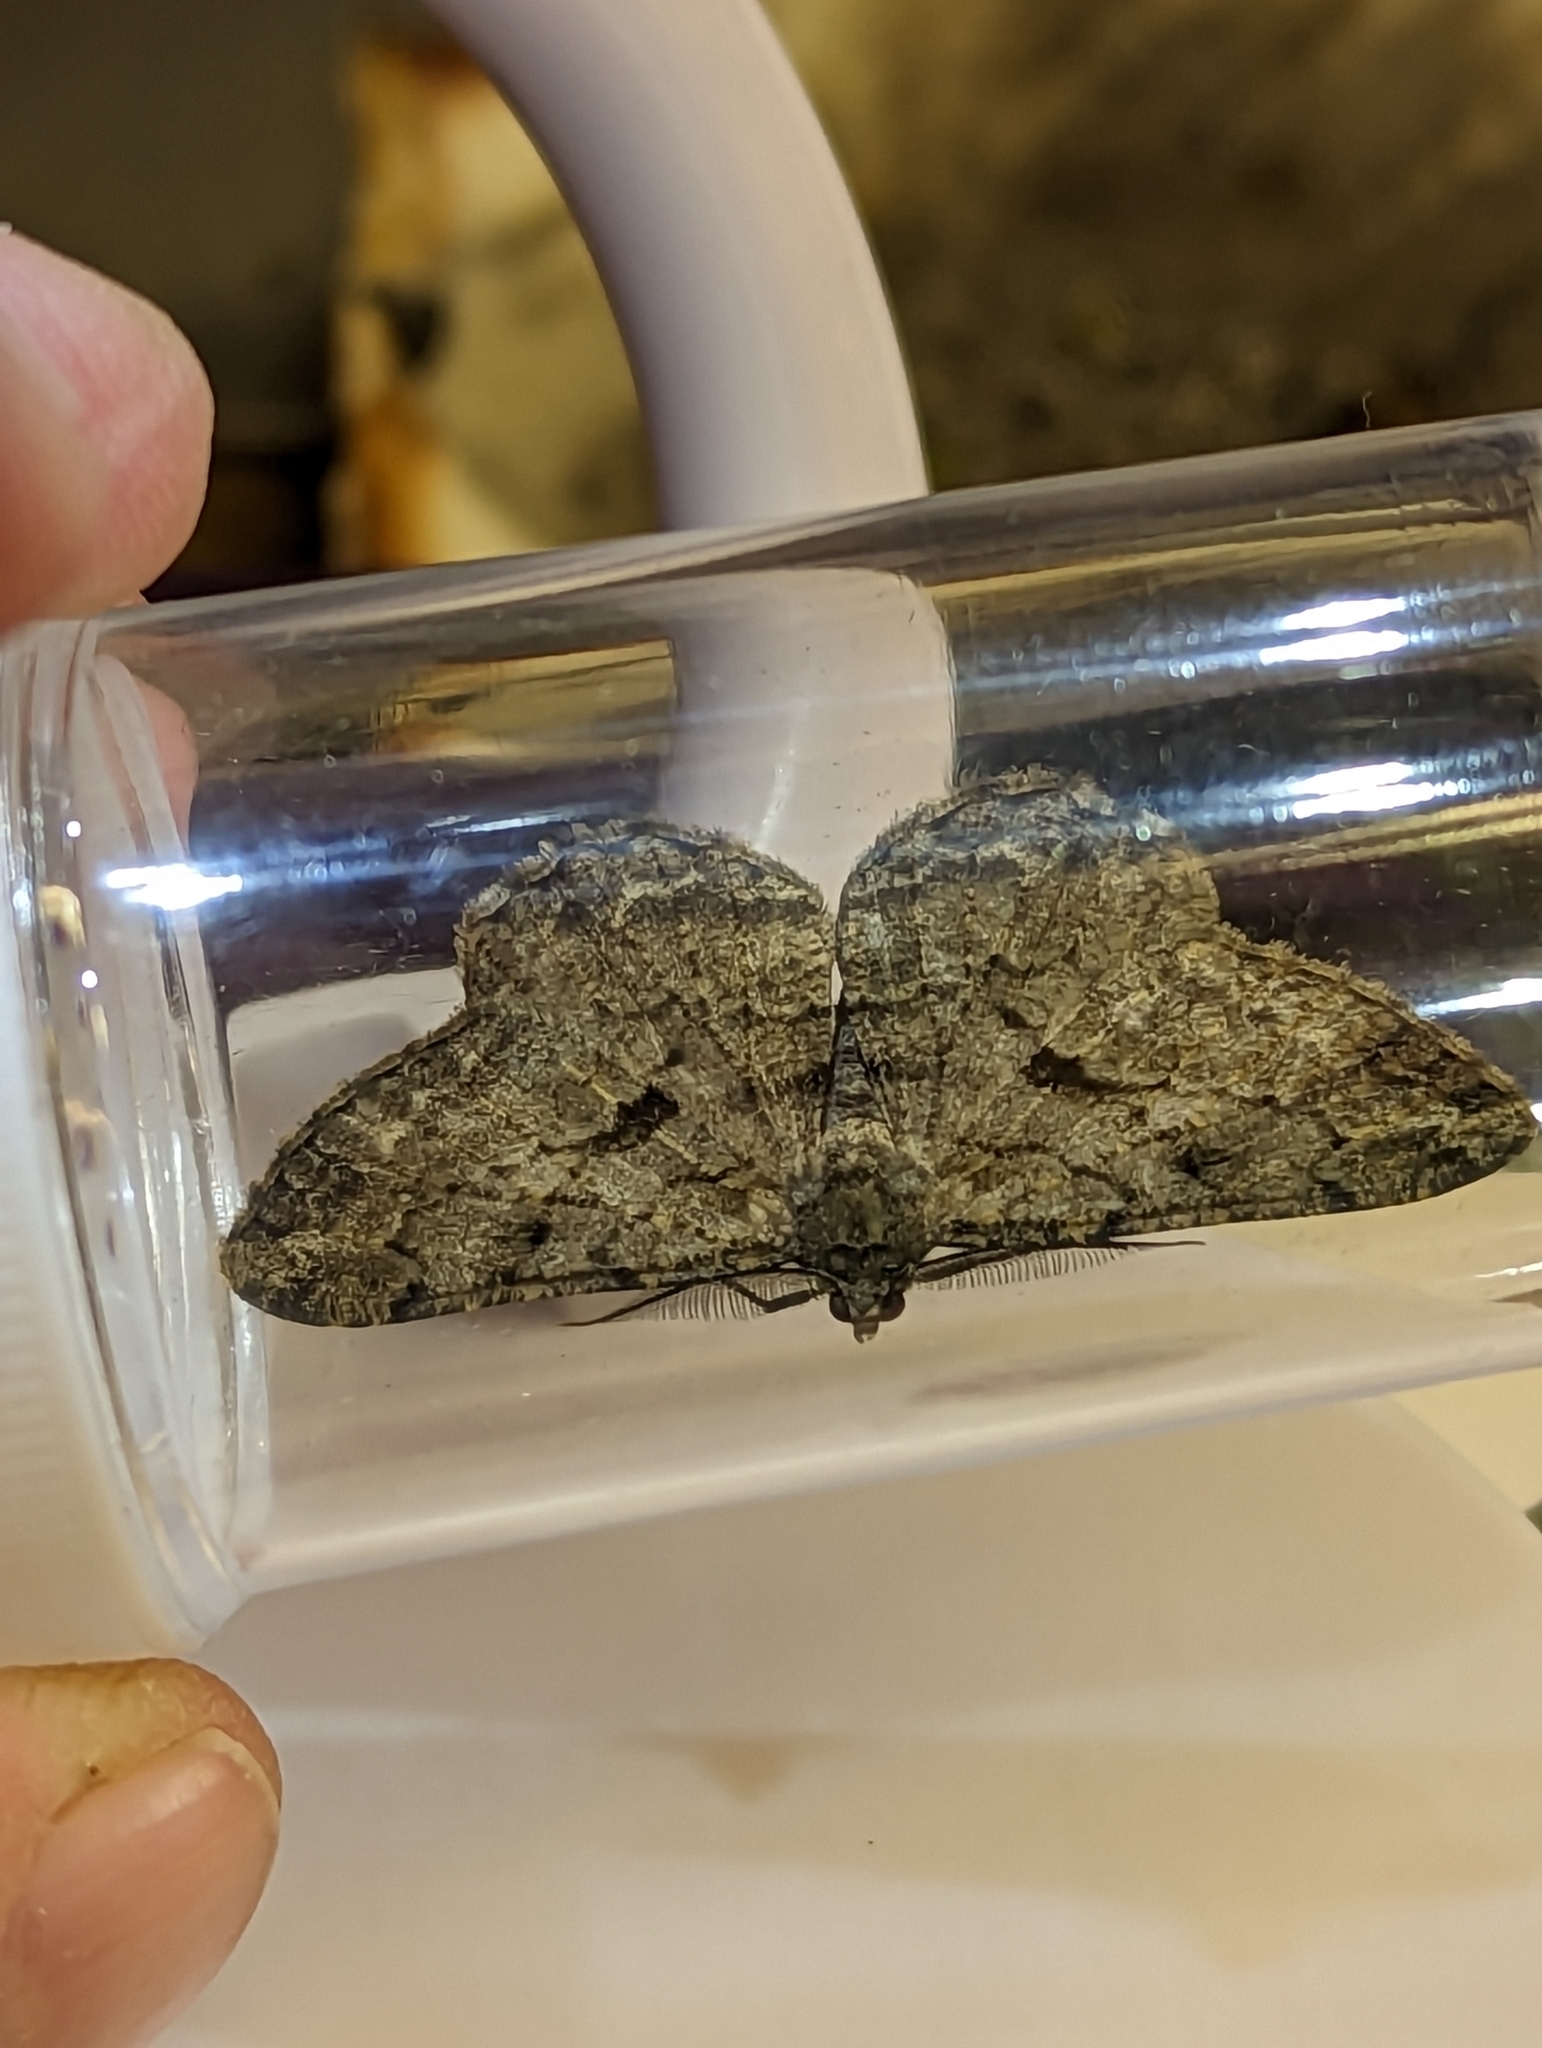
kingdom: Animalia
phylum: Arthropoda
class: Insecta
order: Lepidoptera
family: Geometridae
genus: Peribatodes
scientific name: Peribatodes rhomboidaria
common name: Willow beauty
